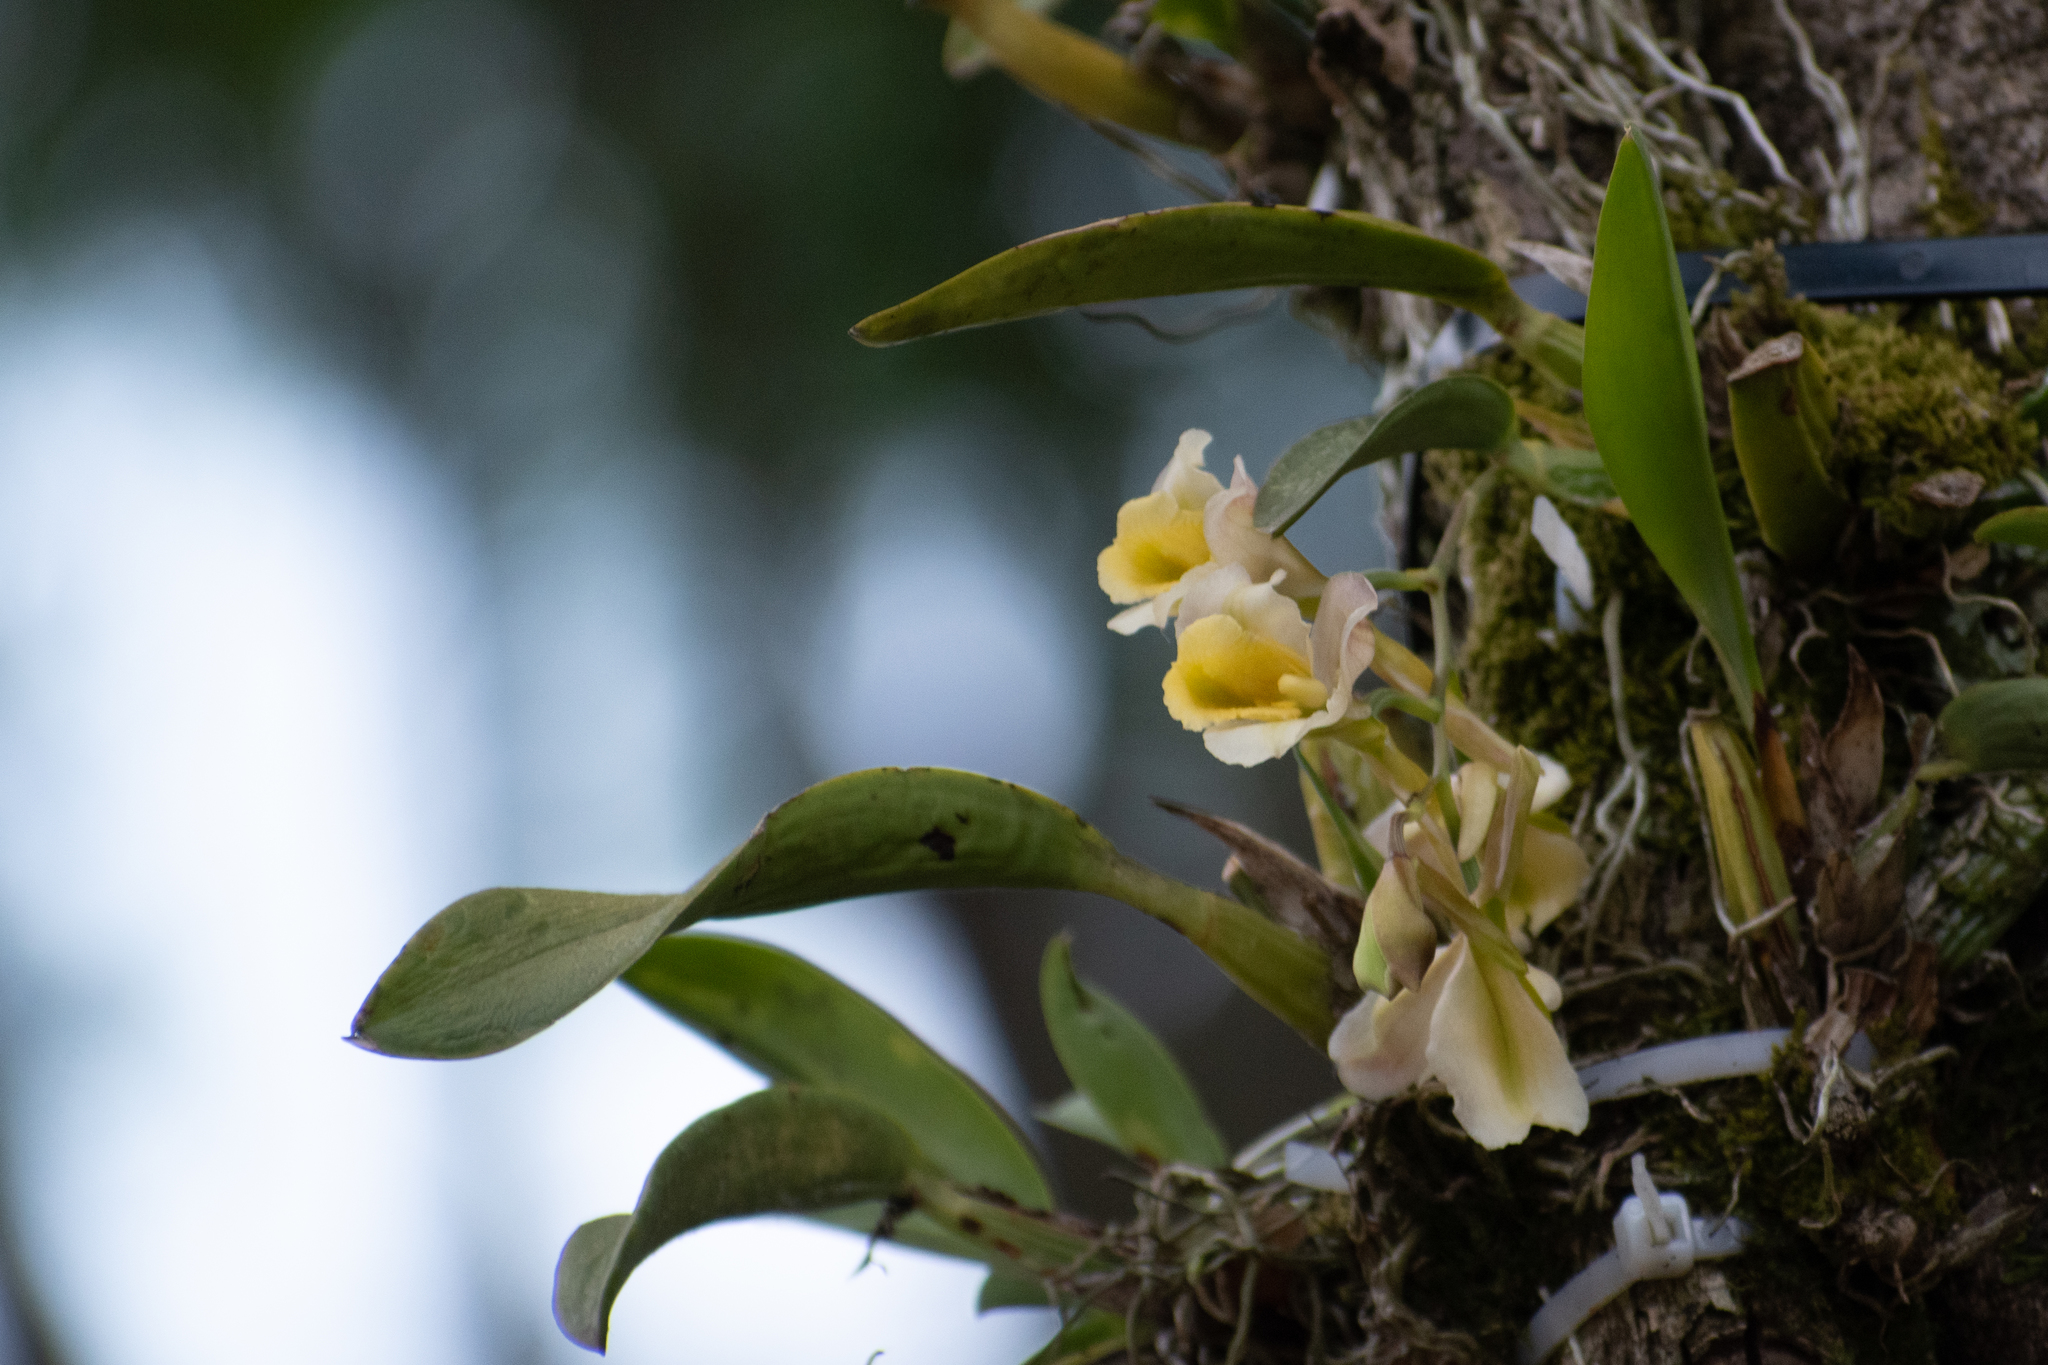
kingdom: Plantae
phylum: Tracheophyta
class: Liliopsida
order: Asparagales
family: Orchidaceae
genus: Rodriguezia
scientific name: Rodriguezia granadensis
